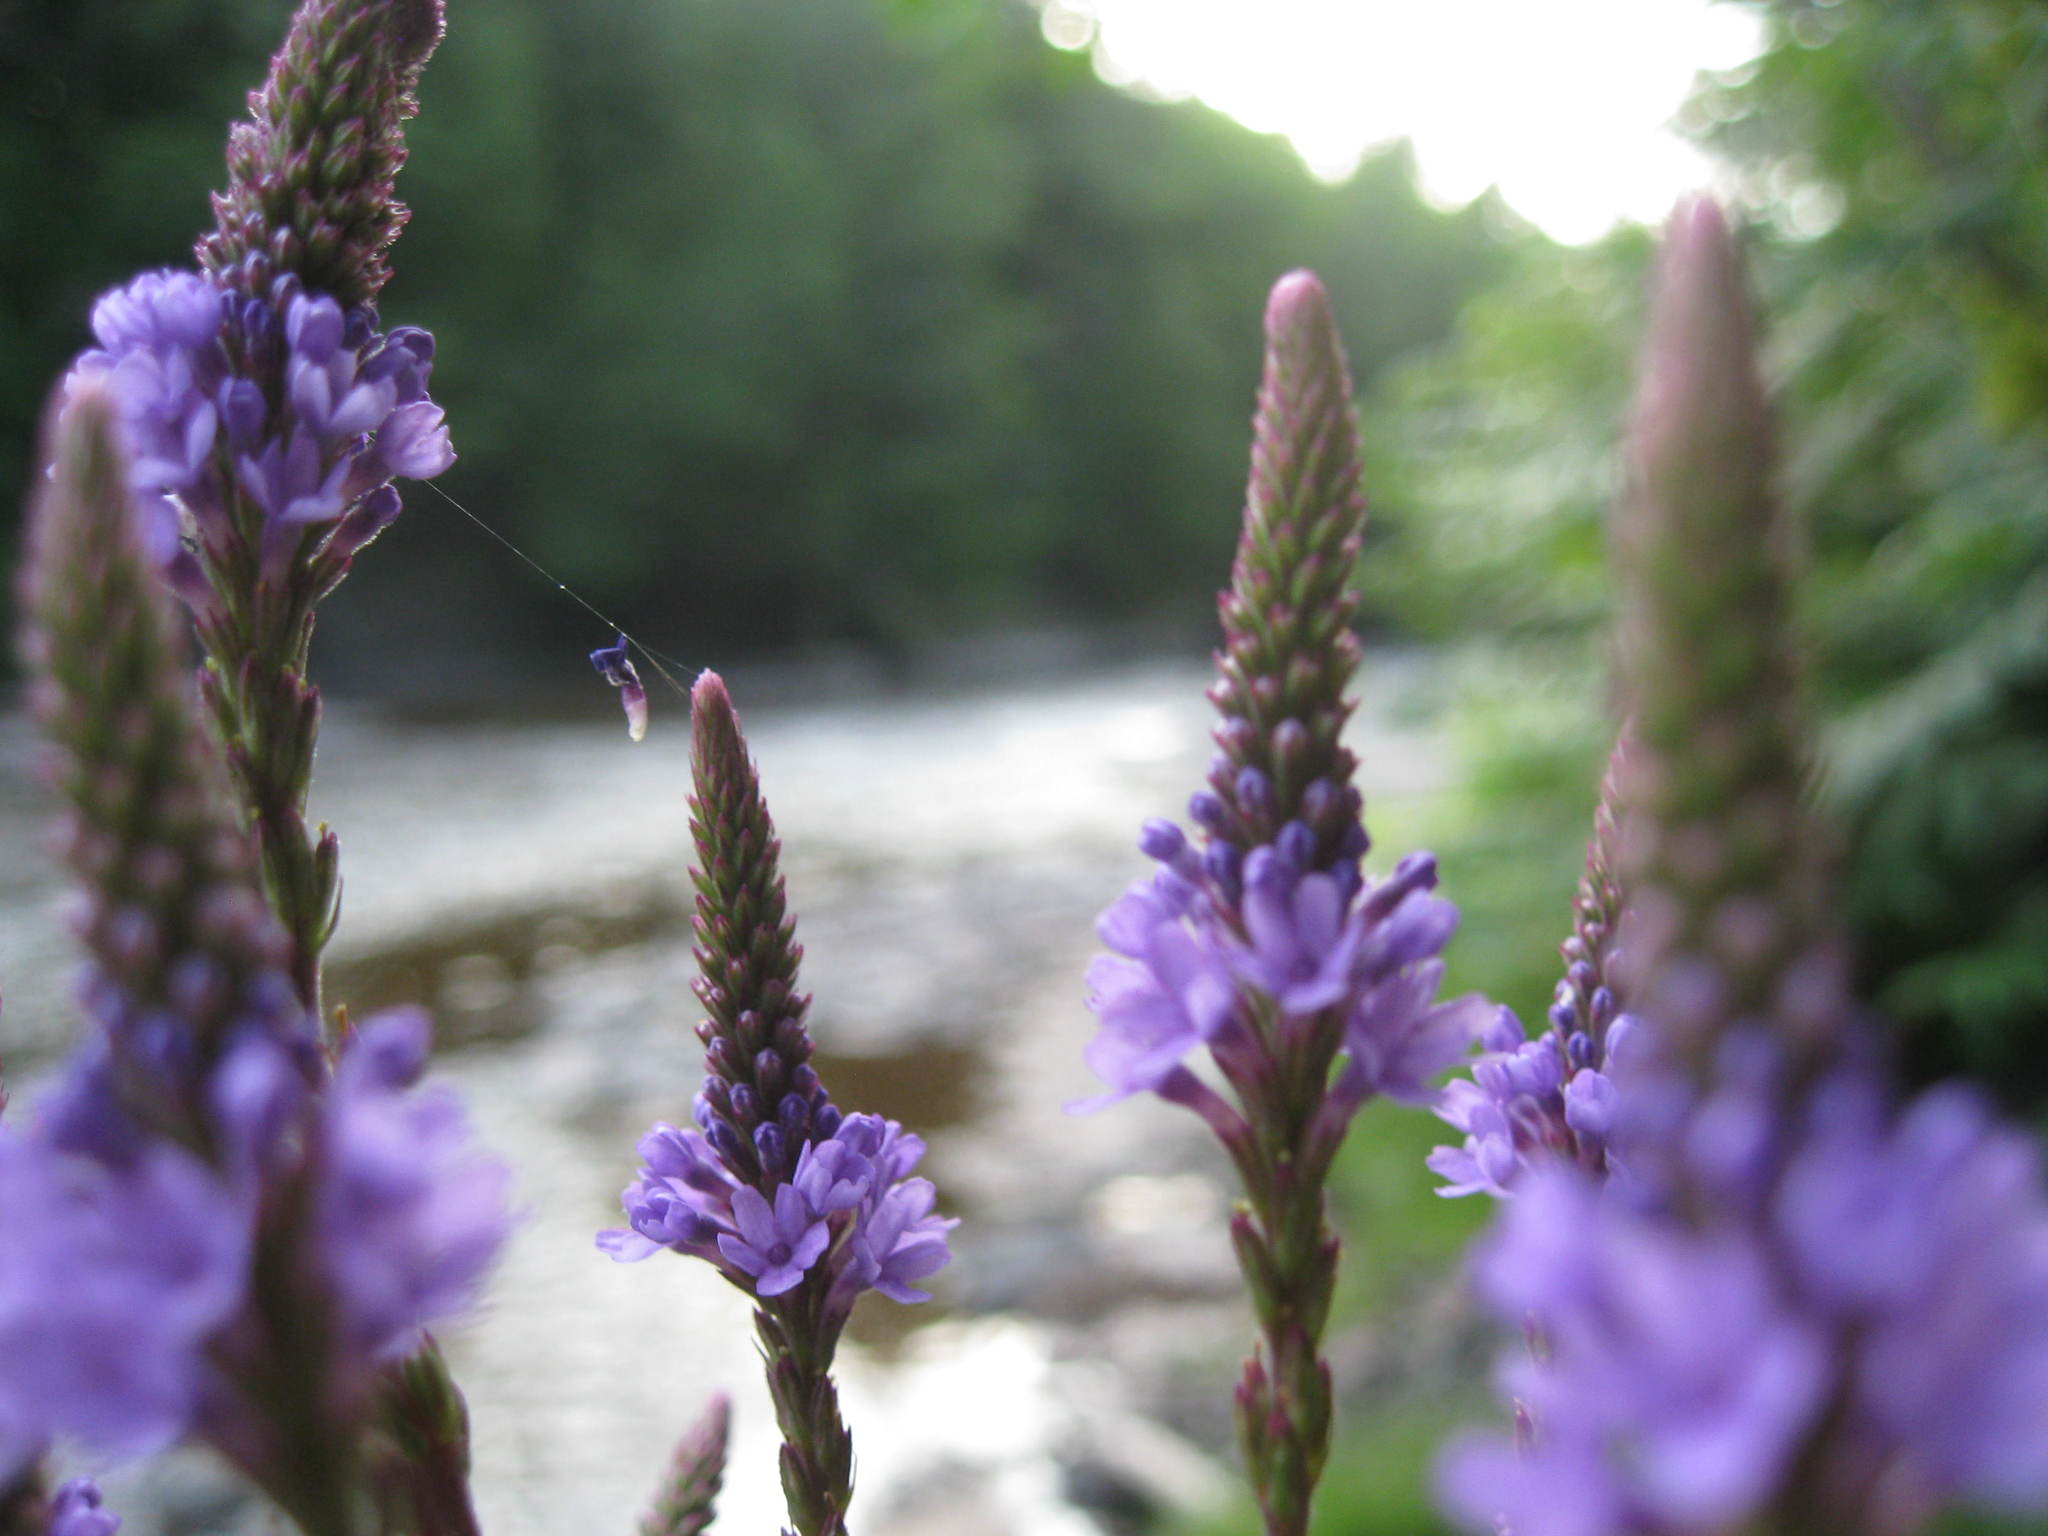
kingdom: Plantae
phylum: Tracheophyta
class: Magnoliopsida
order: Lamiales
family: Verbenaceae
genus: Verbena
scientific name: Verbena hastata
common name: American blue vervain
